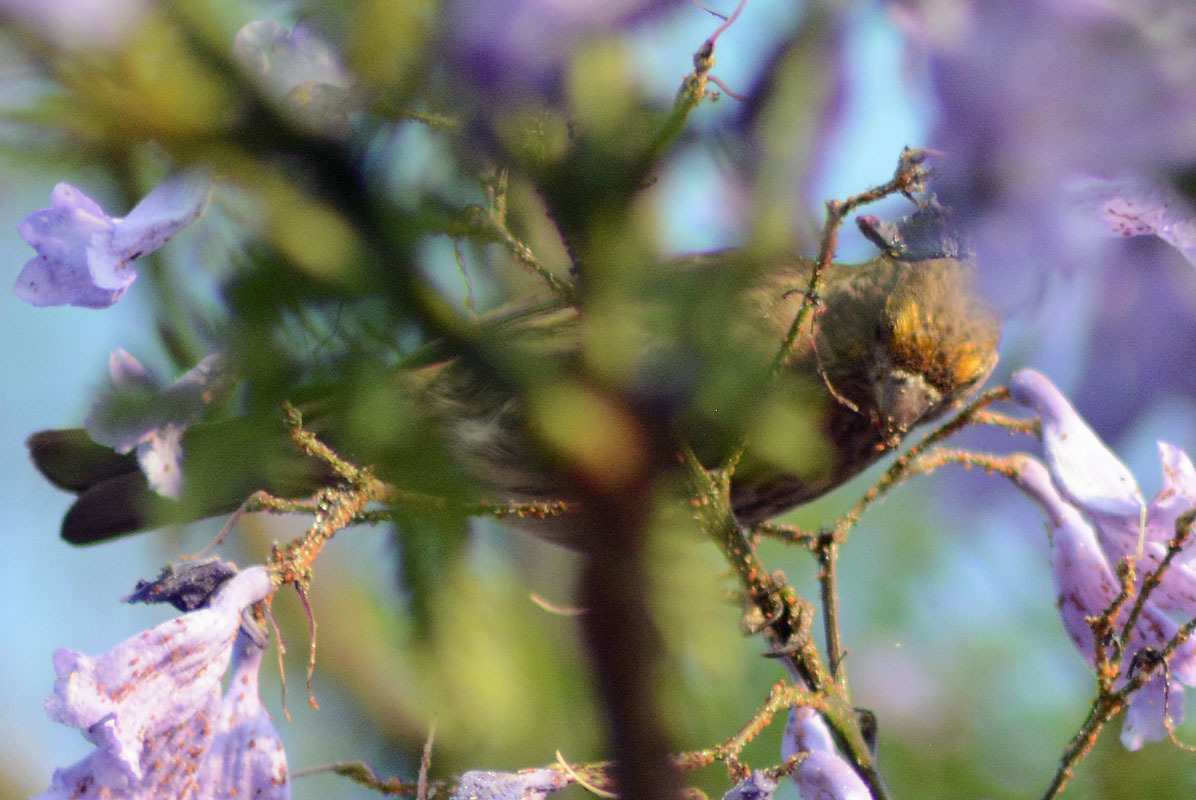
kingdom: Animalia
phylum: Chordata
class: Aves
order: Passeriformes
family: Fringillidae
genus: Haemorhous
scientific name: Haemorhous mexicanus
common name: House finch
